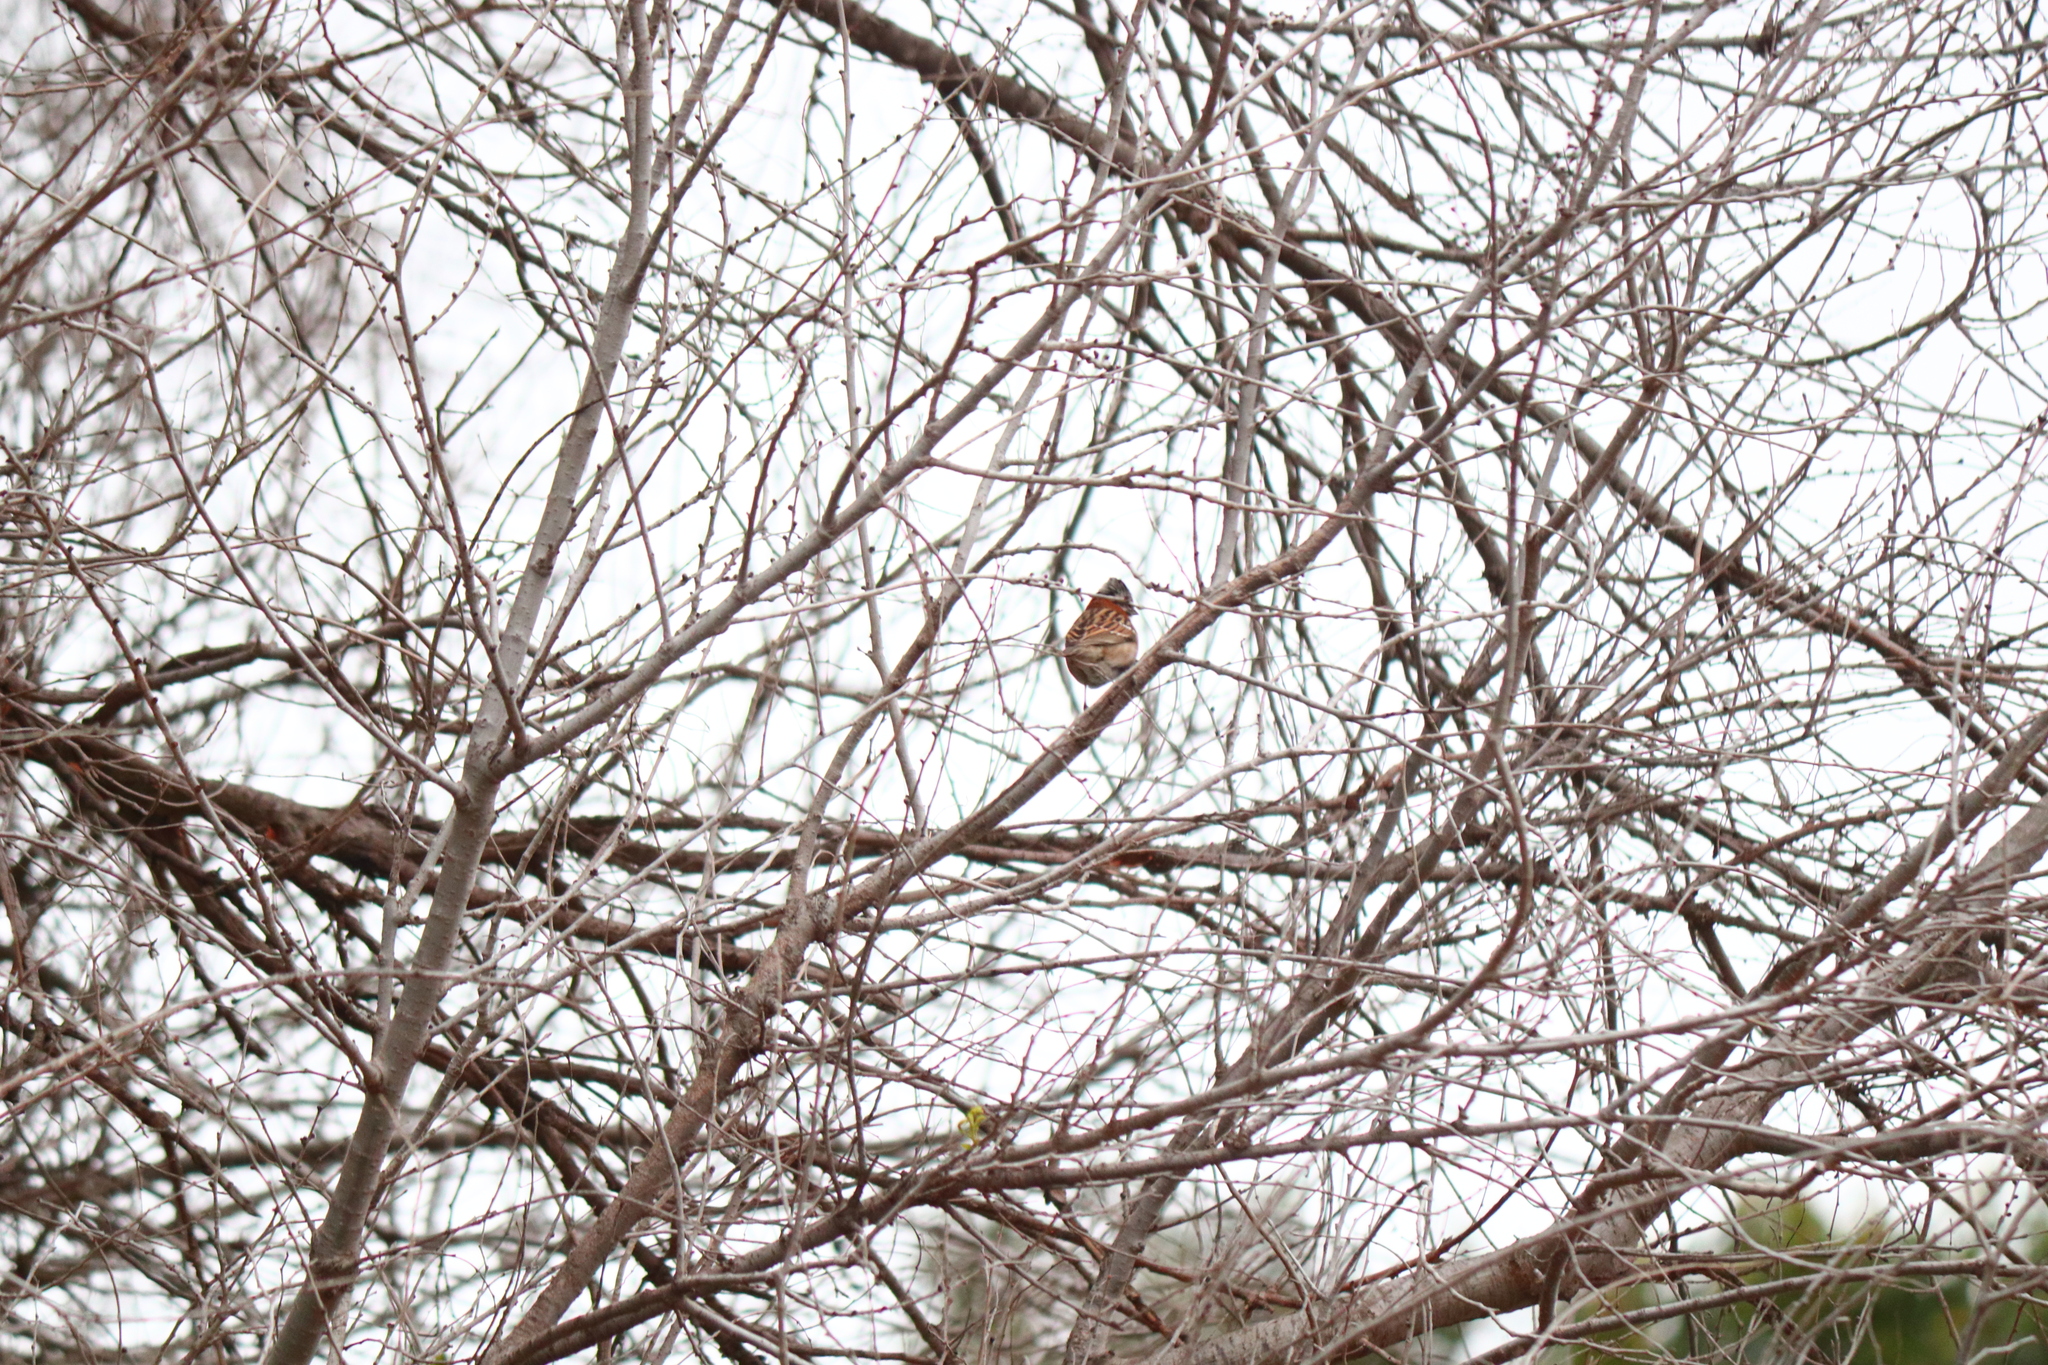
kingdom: Animalia
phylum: Chordata
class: Aves
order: Passeriformes
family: Passerellidae
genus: Zonotrichia
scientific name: Zonotrichia capensis
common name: Rufous-collared sparrow
